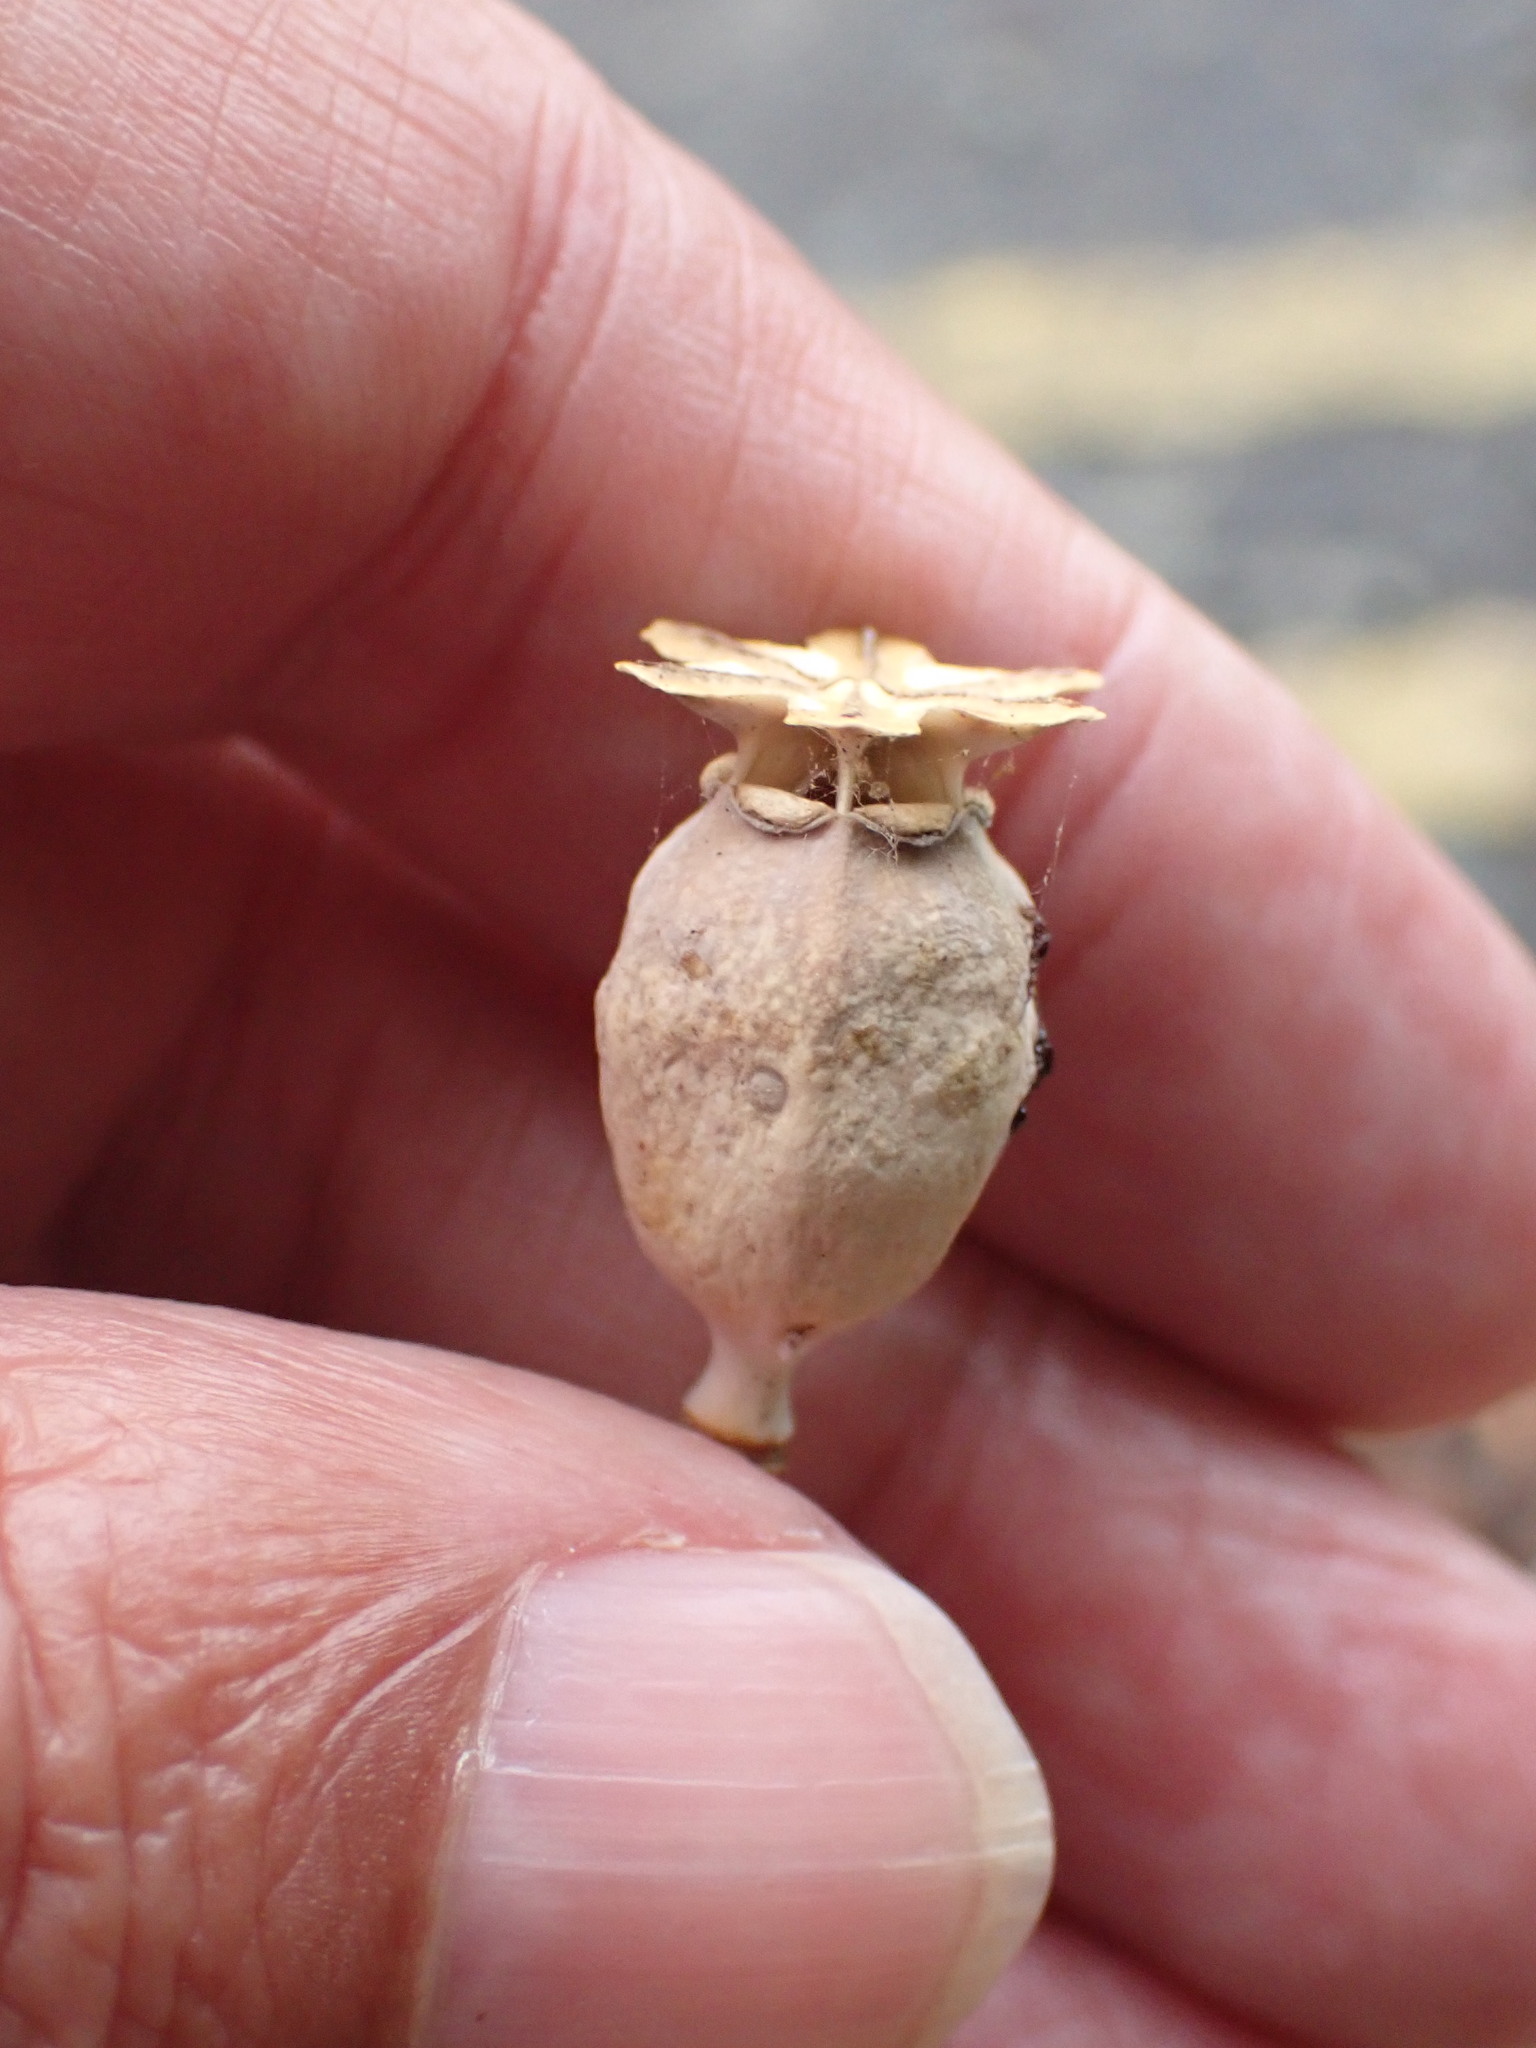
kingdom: Plantae
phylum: Tracheophyta
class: Magnoliopsida
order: Ranunculales
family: Papaveraceae
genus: Papaver
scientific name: Papaver somniferum
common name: Opium poppy
